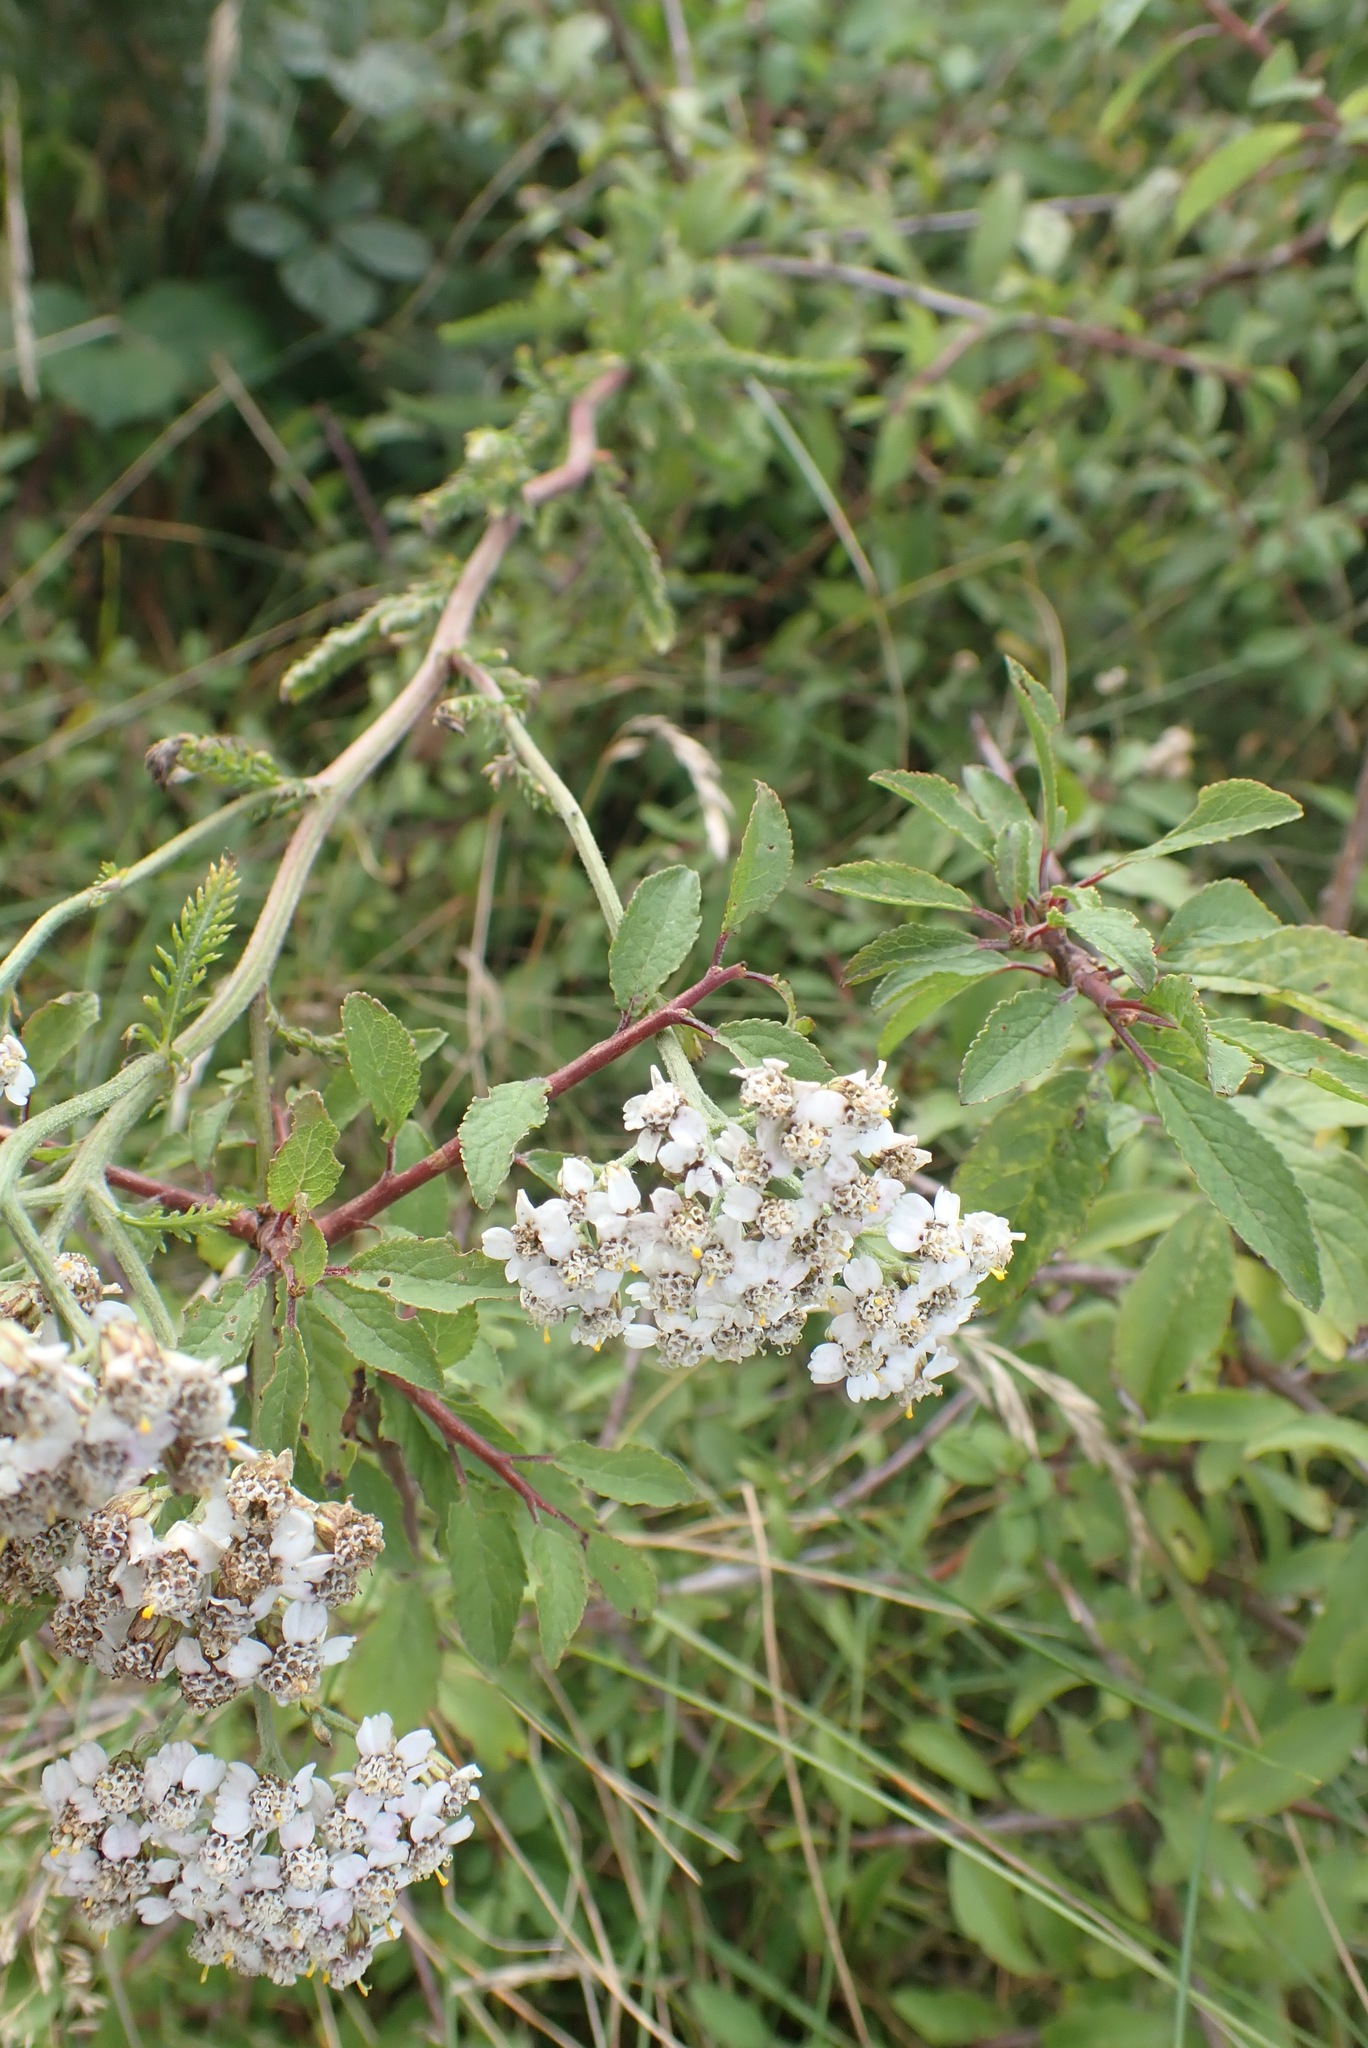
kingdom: Plantae
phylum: Tracheophyta
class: Magnoliopsida
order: Asterales
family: Asteraceae
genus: Achillea
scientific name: Achillea millefolium
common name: Yarrow
